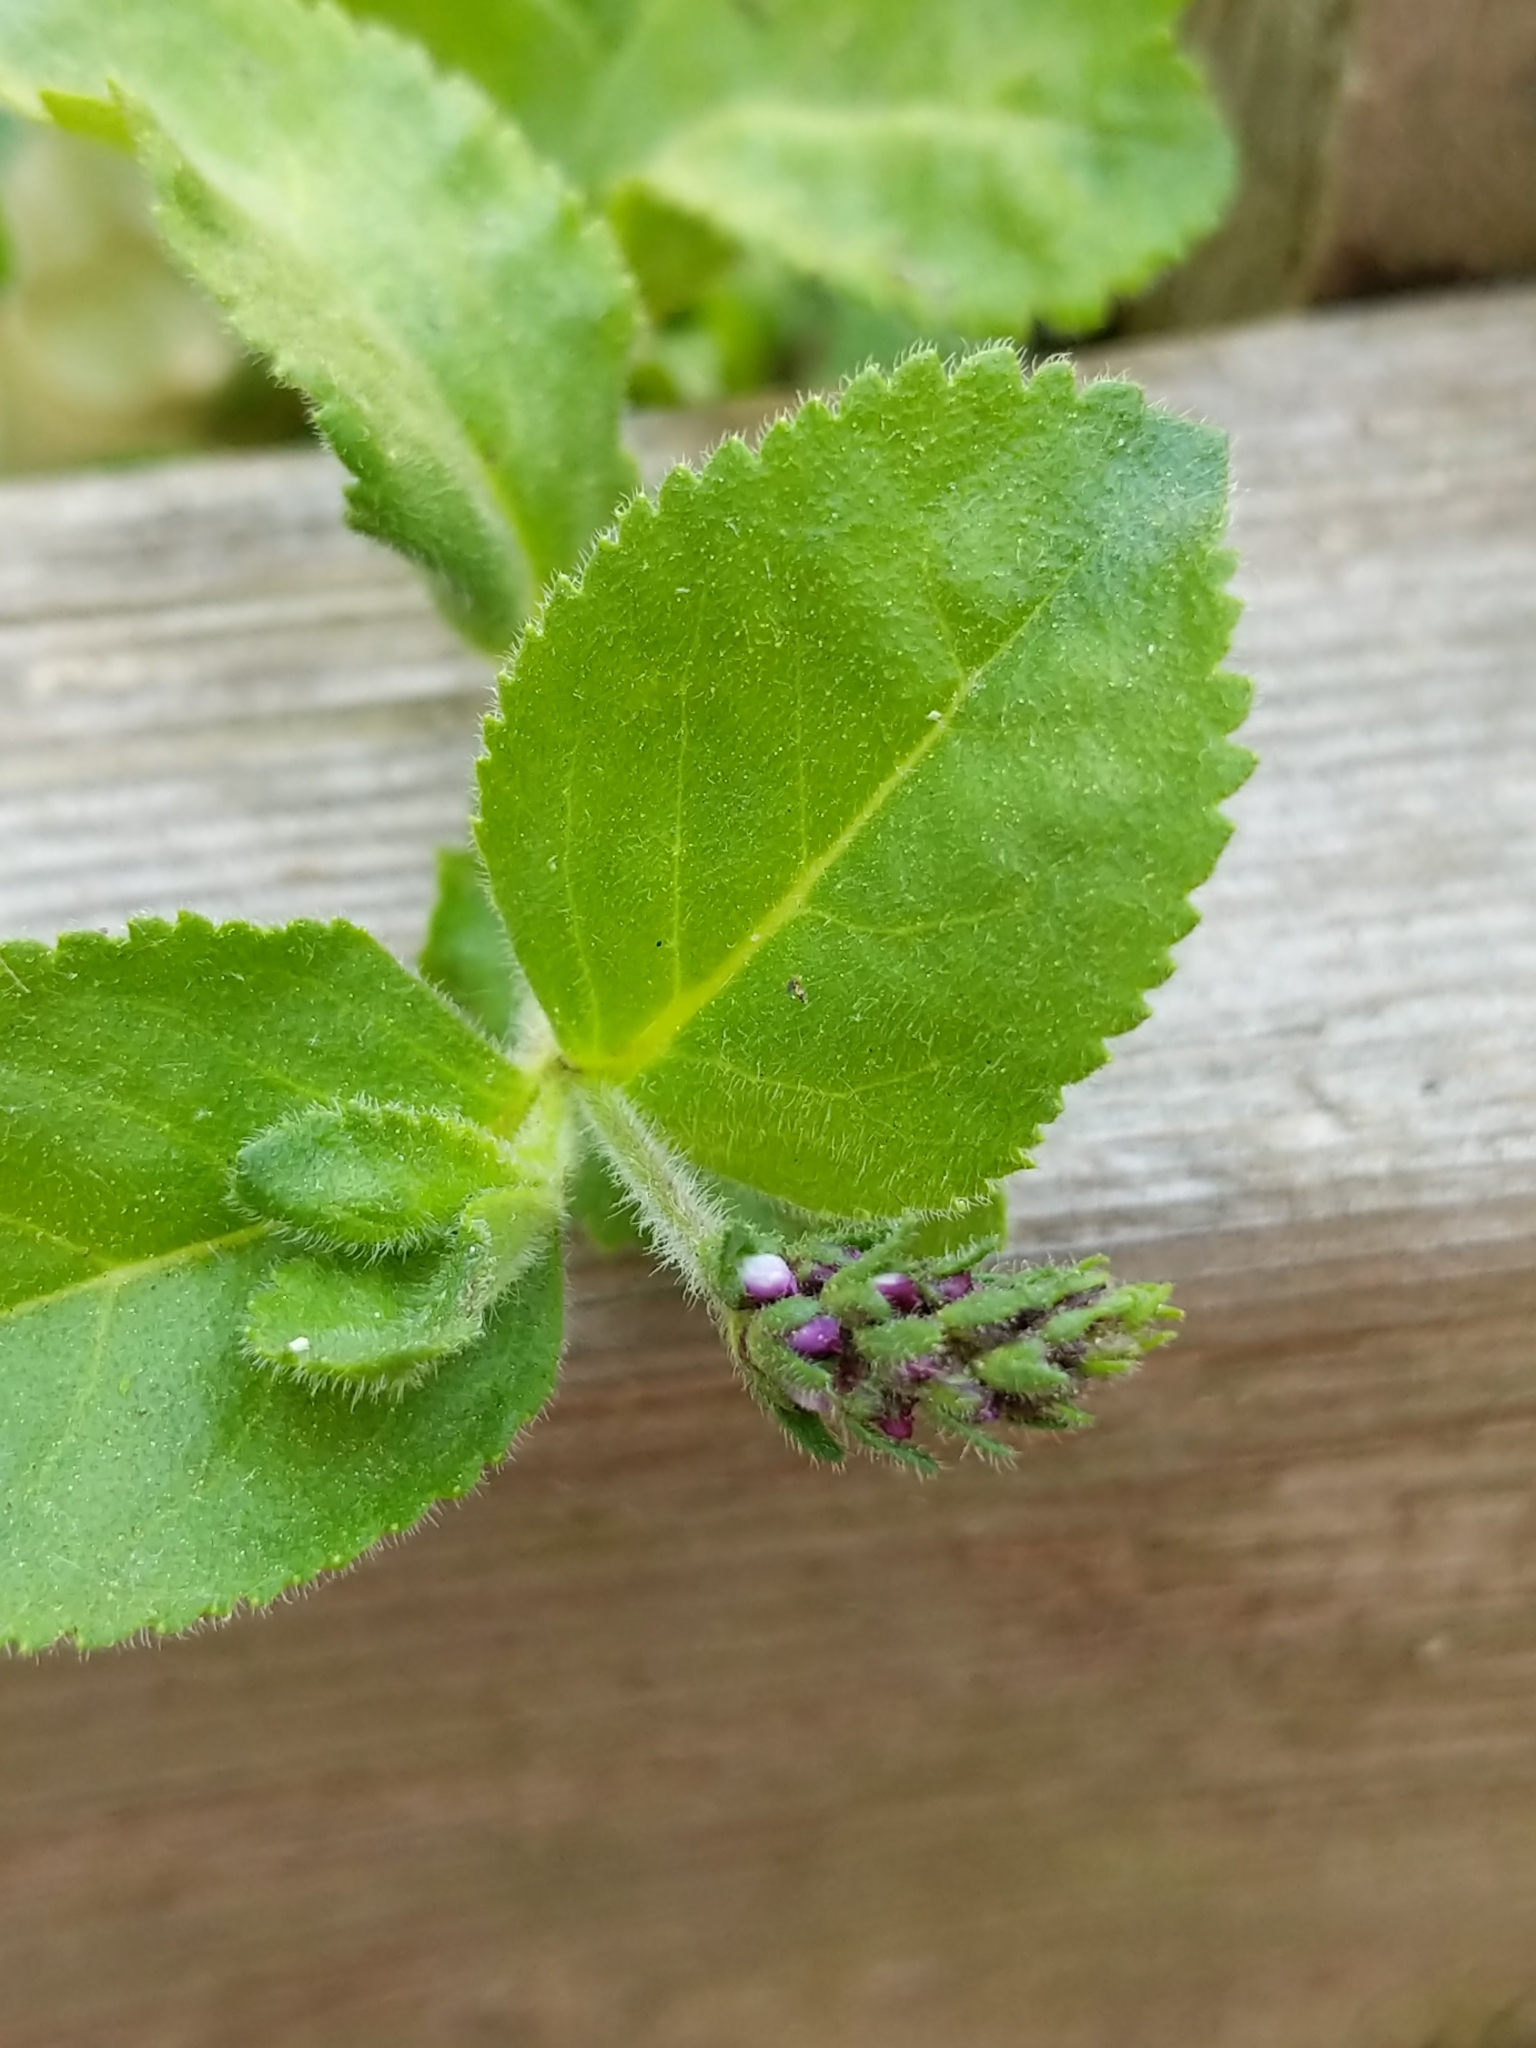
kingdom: Plantae
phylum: Tracheophyta
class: Magnoliopsida
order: Lamiales
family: Plantaginaceae
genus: Veronica
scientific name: Veronica officinalis
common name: Common speedwell
